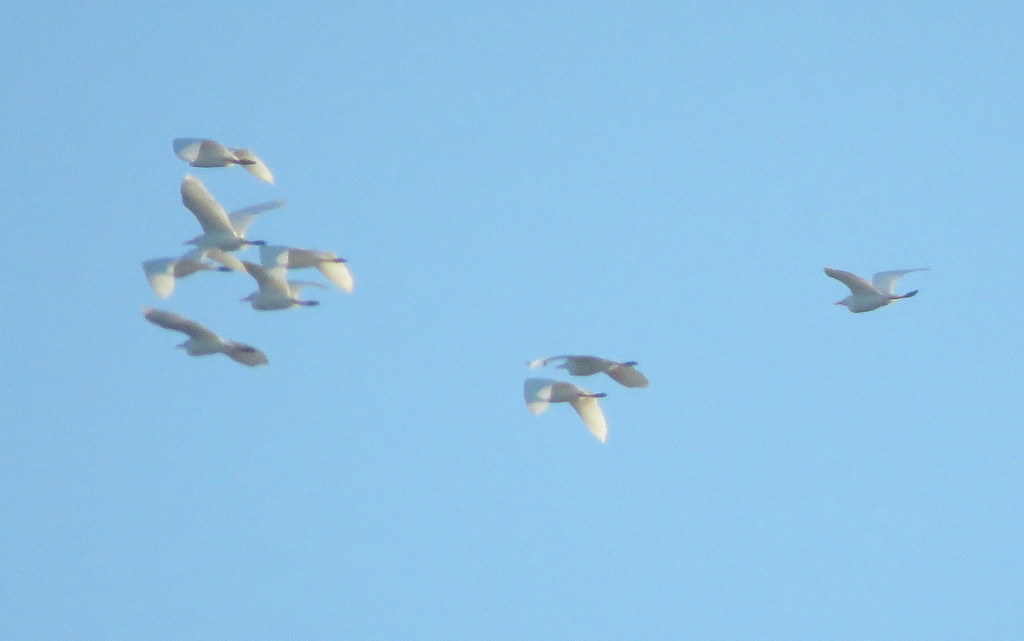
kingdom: Animalia
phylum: Chordata
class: Aves
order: Pelecaniformes
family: Ardeidae
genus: Bubulcus
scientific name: Bubulcus ibis
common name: Cattle egret
